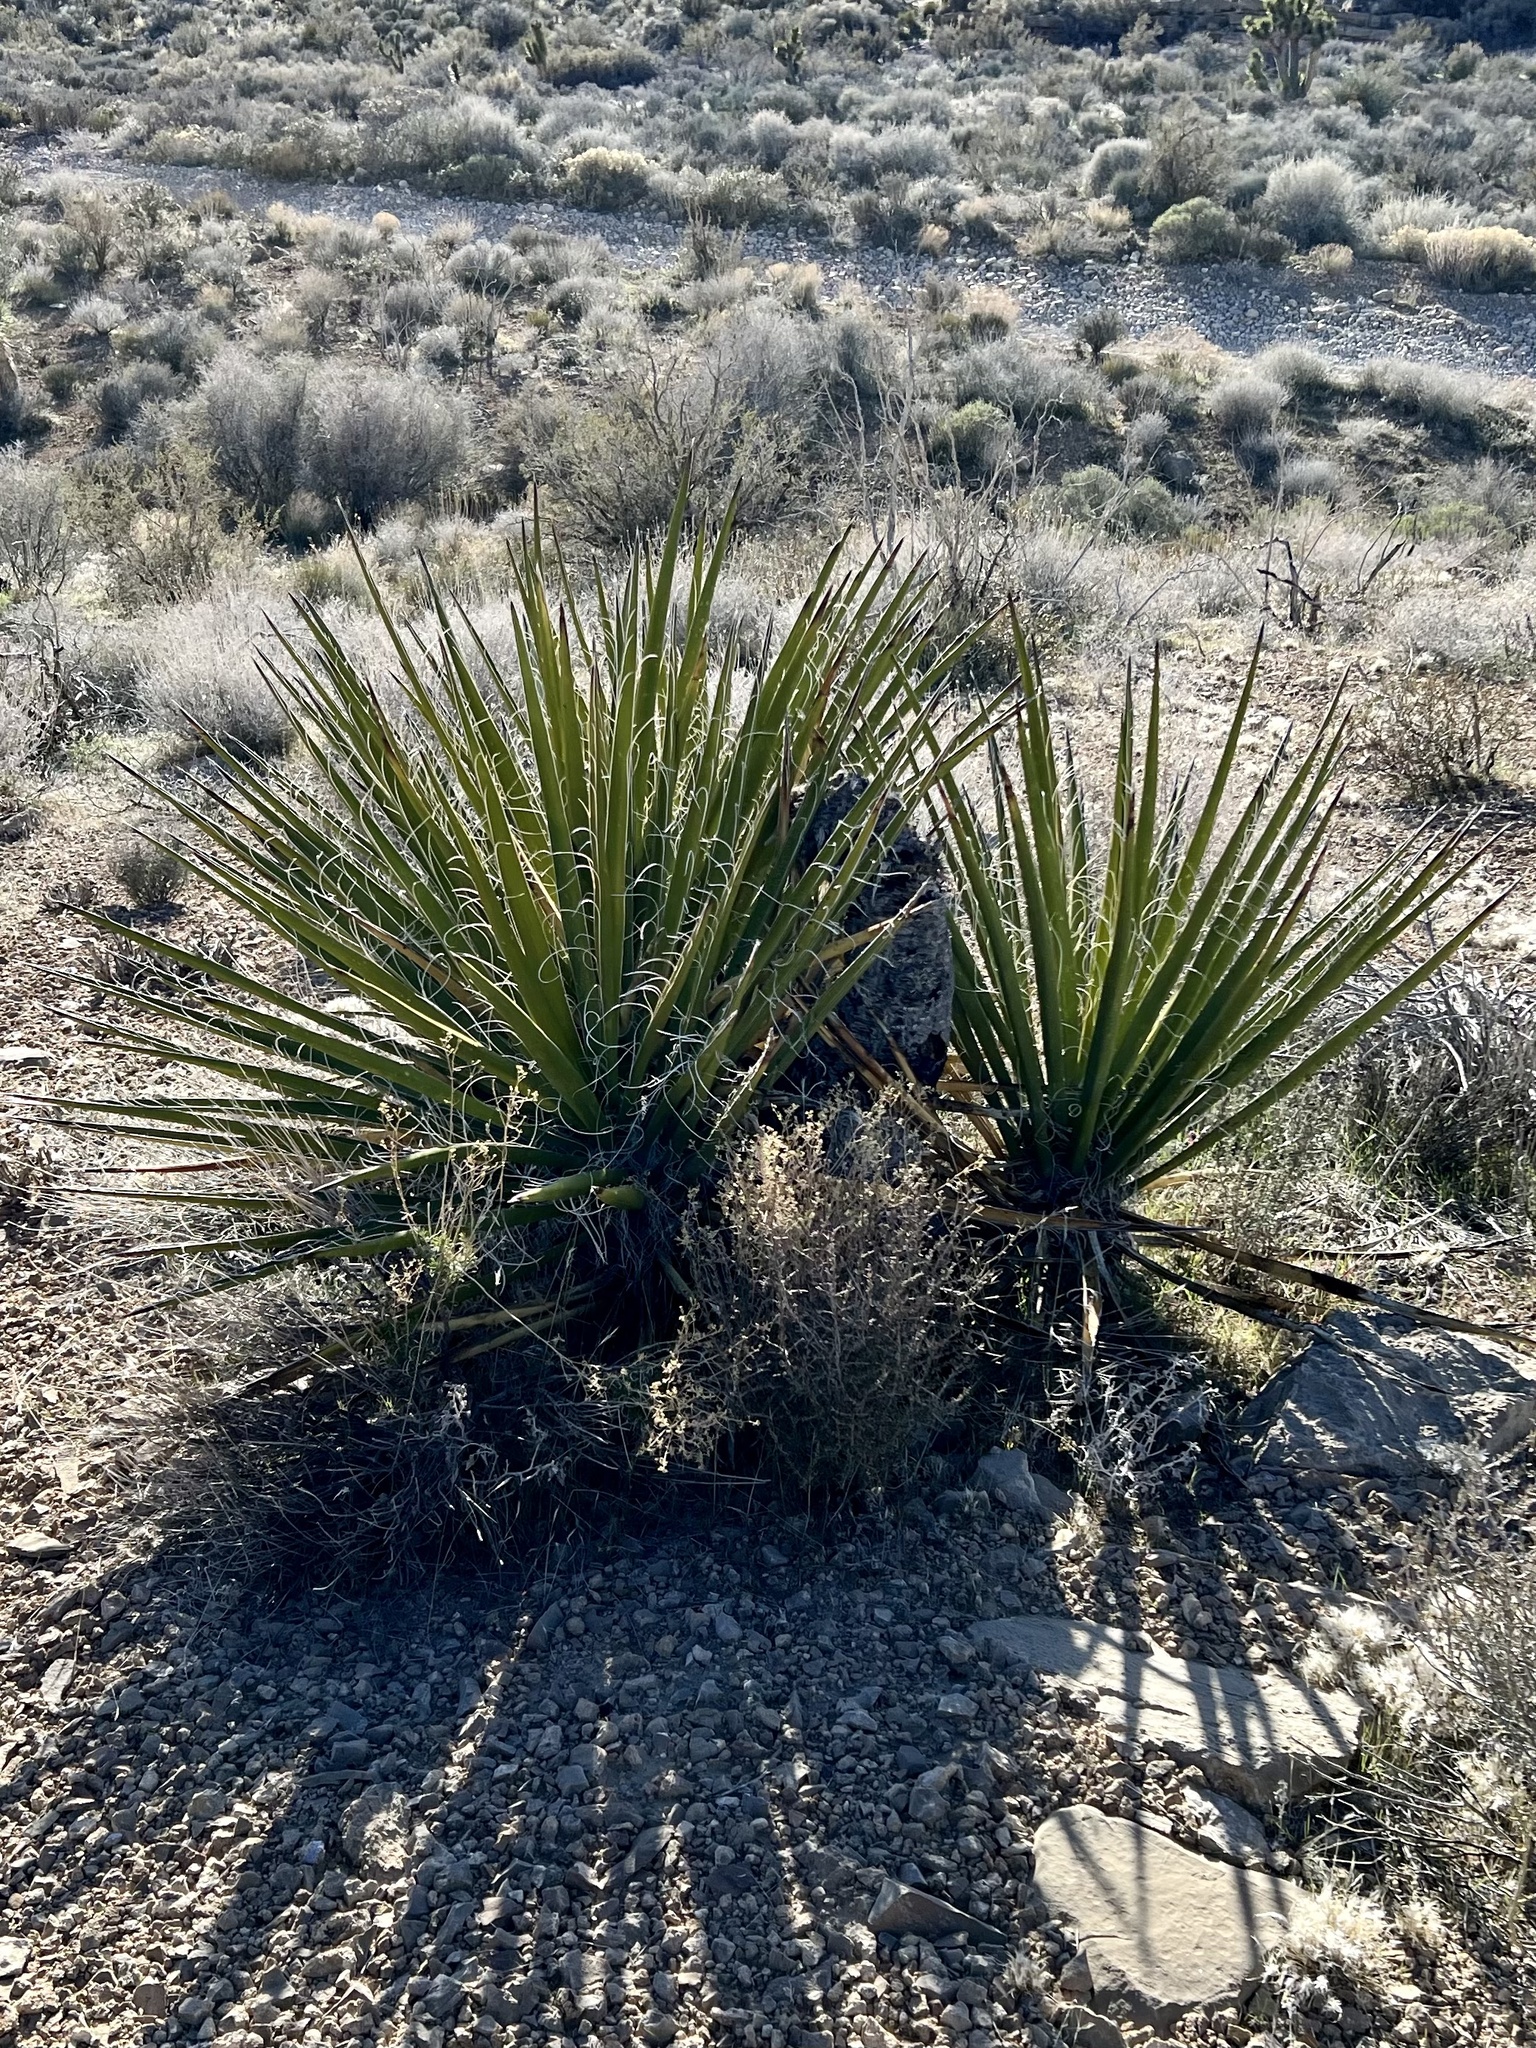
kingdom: Plantae
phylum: Tracheophyta
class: Liliopsida
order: Asparagales
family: Asparagaceae
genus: Yucca
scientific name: Yucca schidigera
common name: Mojave yucca
